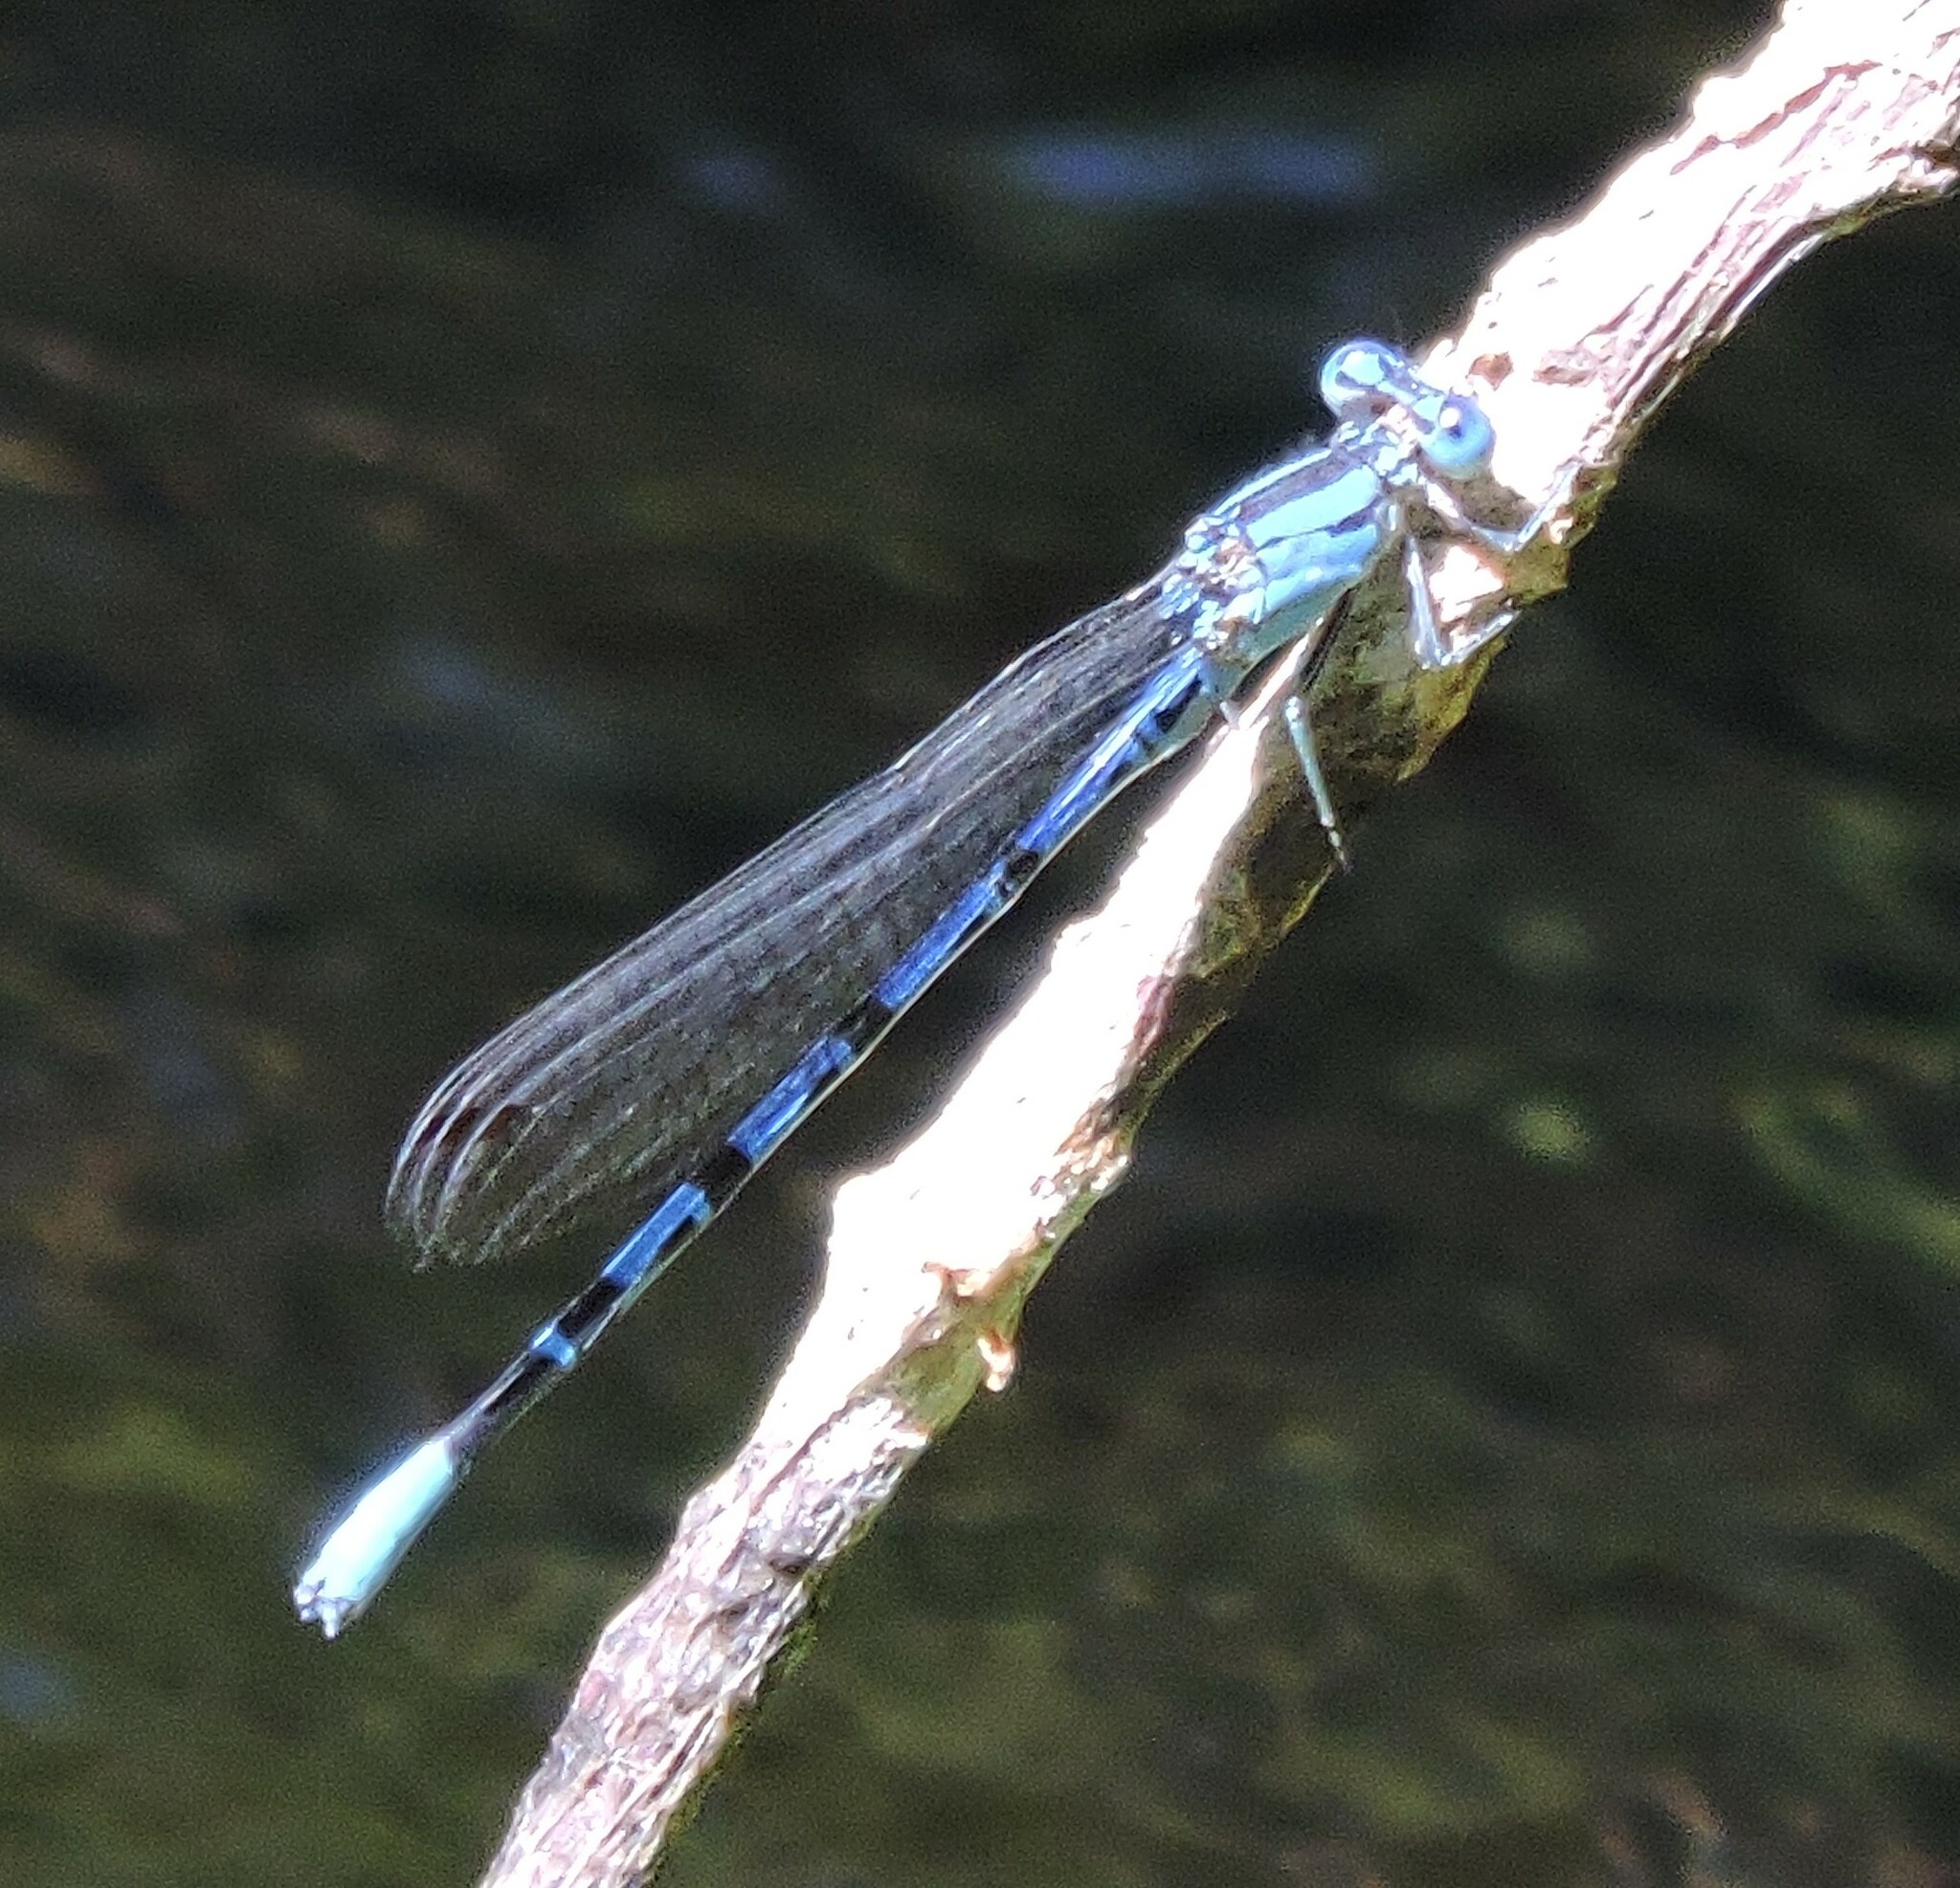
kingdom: Animalia
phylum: Arthropoda
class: Insecta
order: Odonata
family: Coenagrionidae
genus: Argia
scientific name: Argia vivida
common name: Vivid dancer
